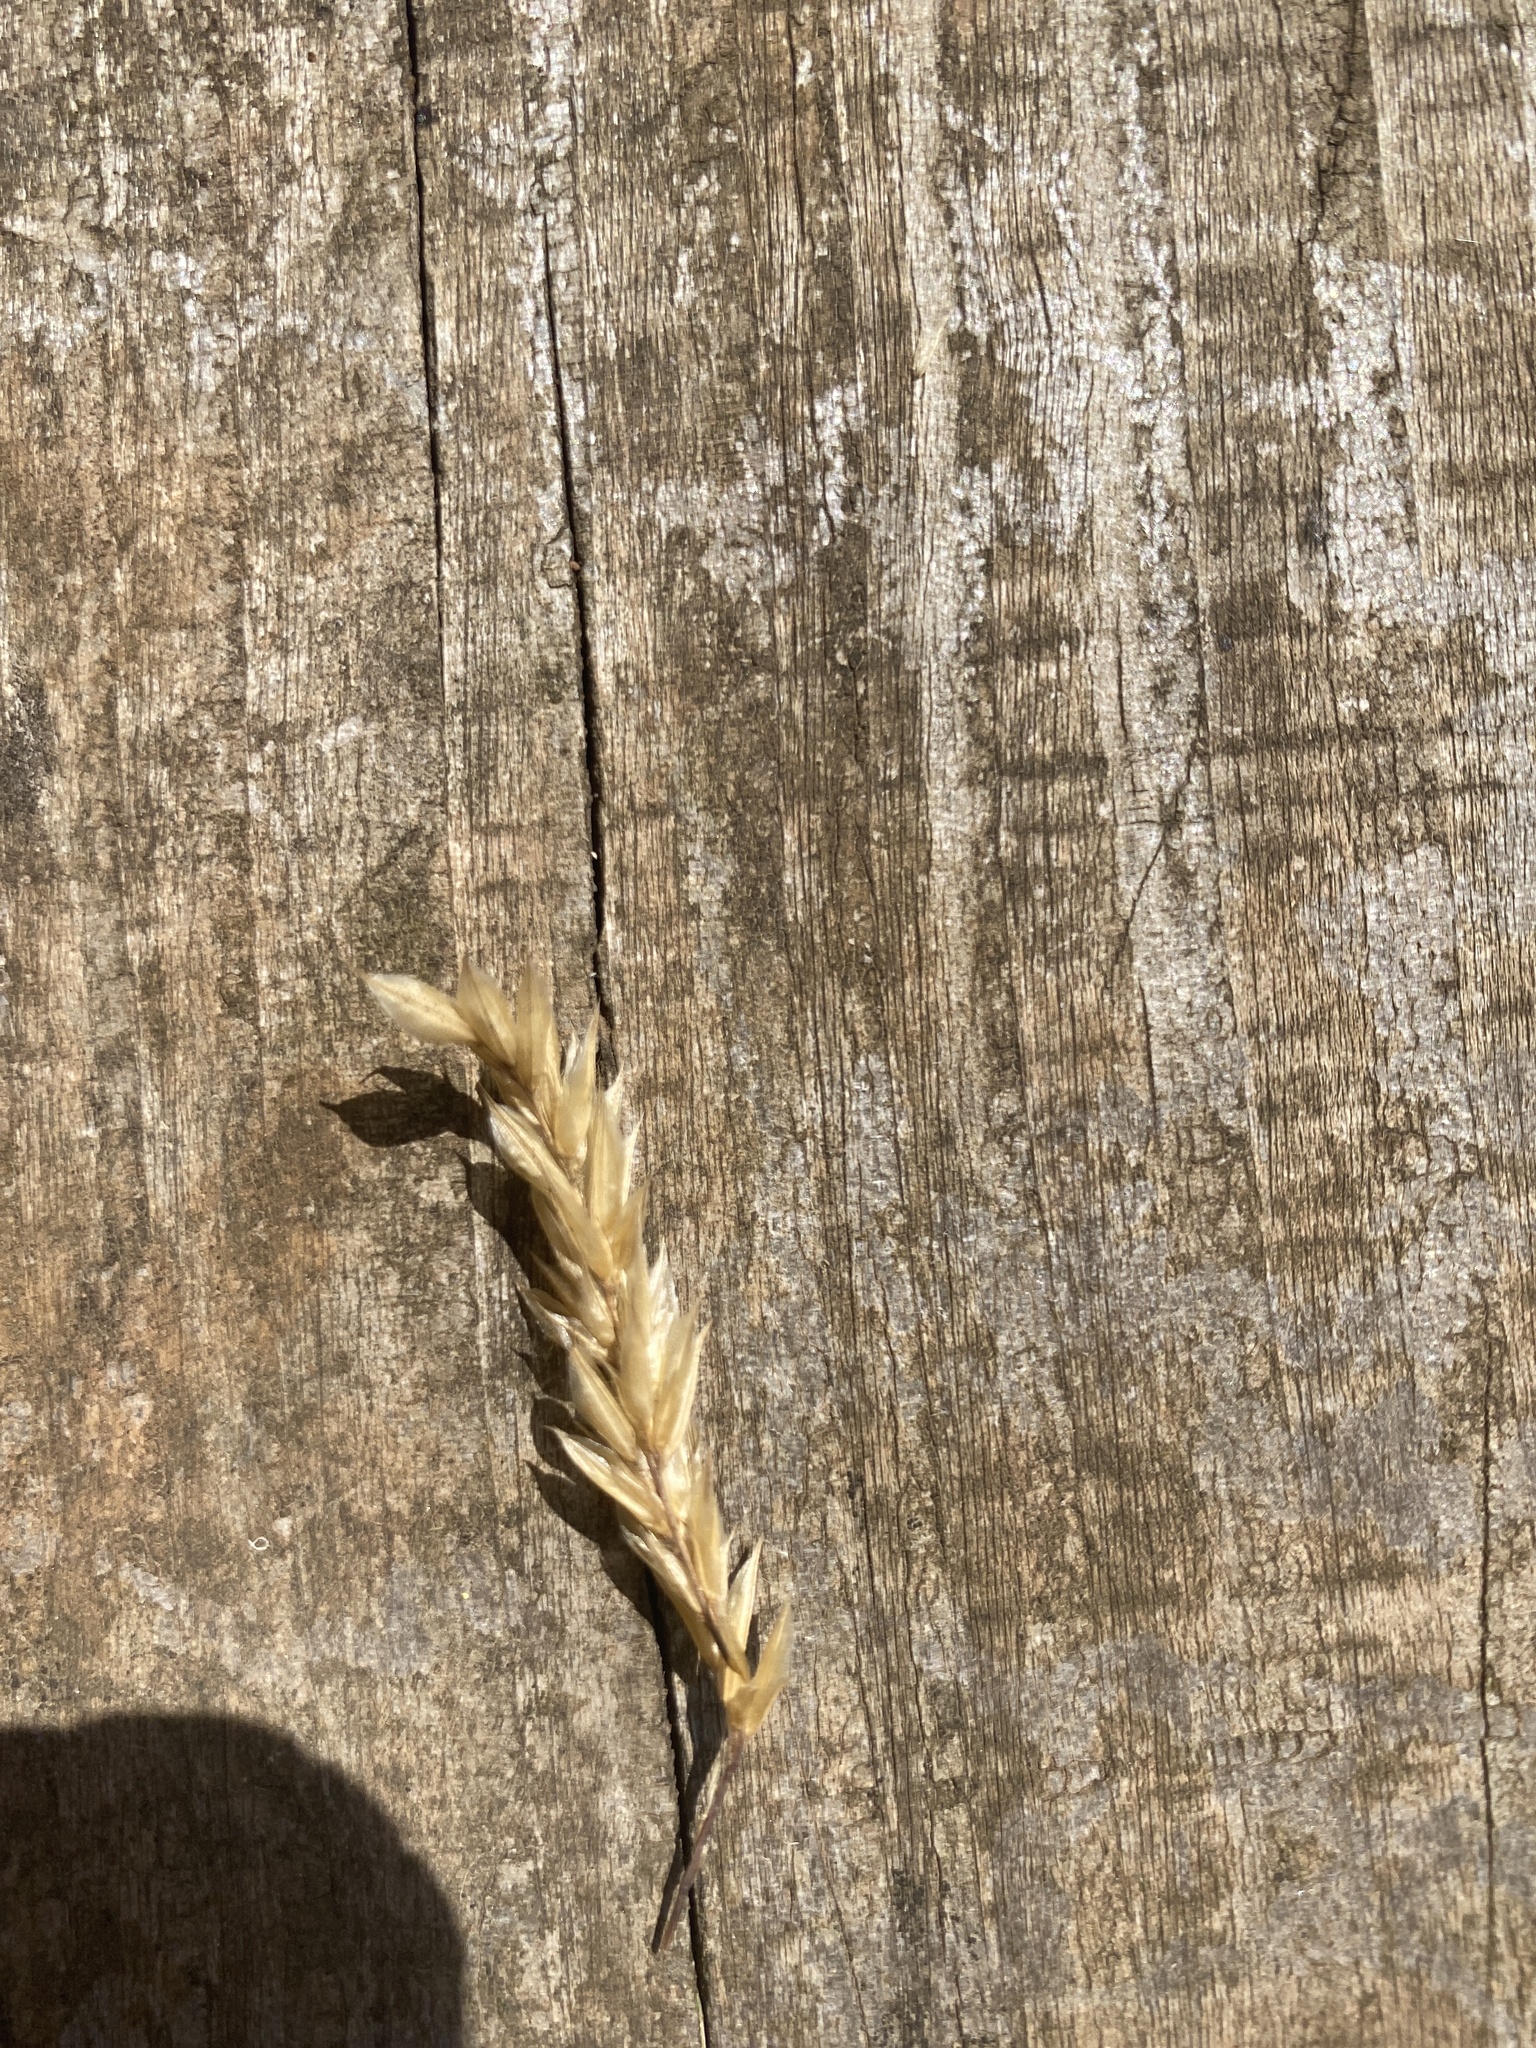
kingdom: Plantae
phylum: Tracheophyta
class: Liliopsida
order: Poales
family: Poaceae
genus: Anthoxanthum
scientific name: Anthoxanthum odoratum
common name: Sweet vernalgrass
